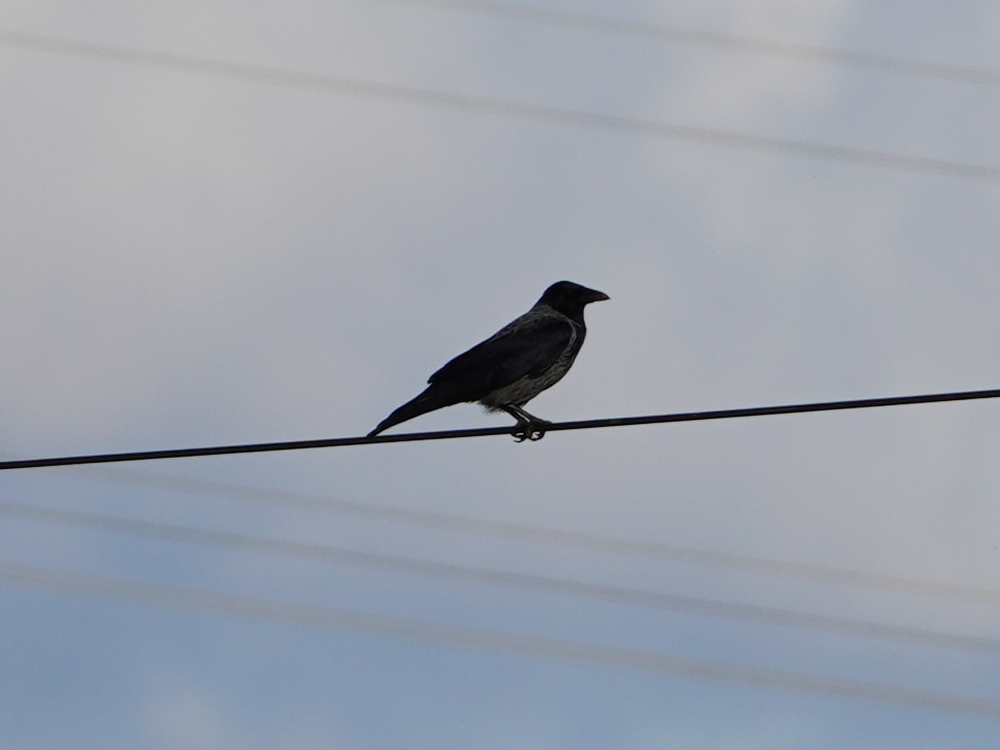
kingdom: Animalia
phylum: Chordata
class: Aves
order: Passeriformes
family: Corvidae
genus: Corvus
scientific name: Corvus
